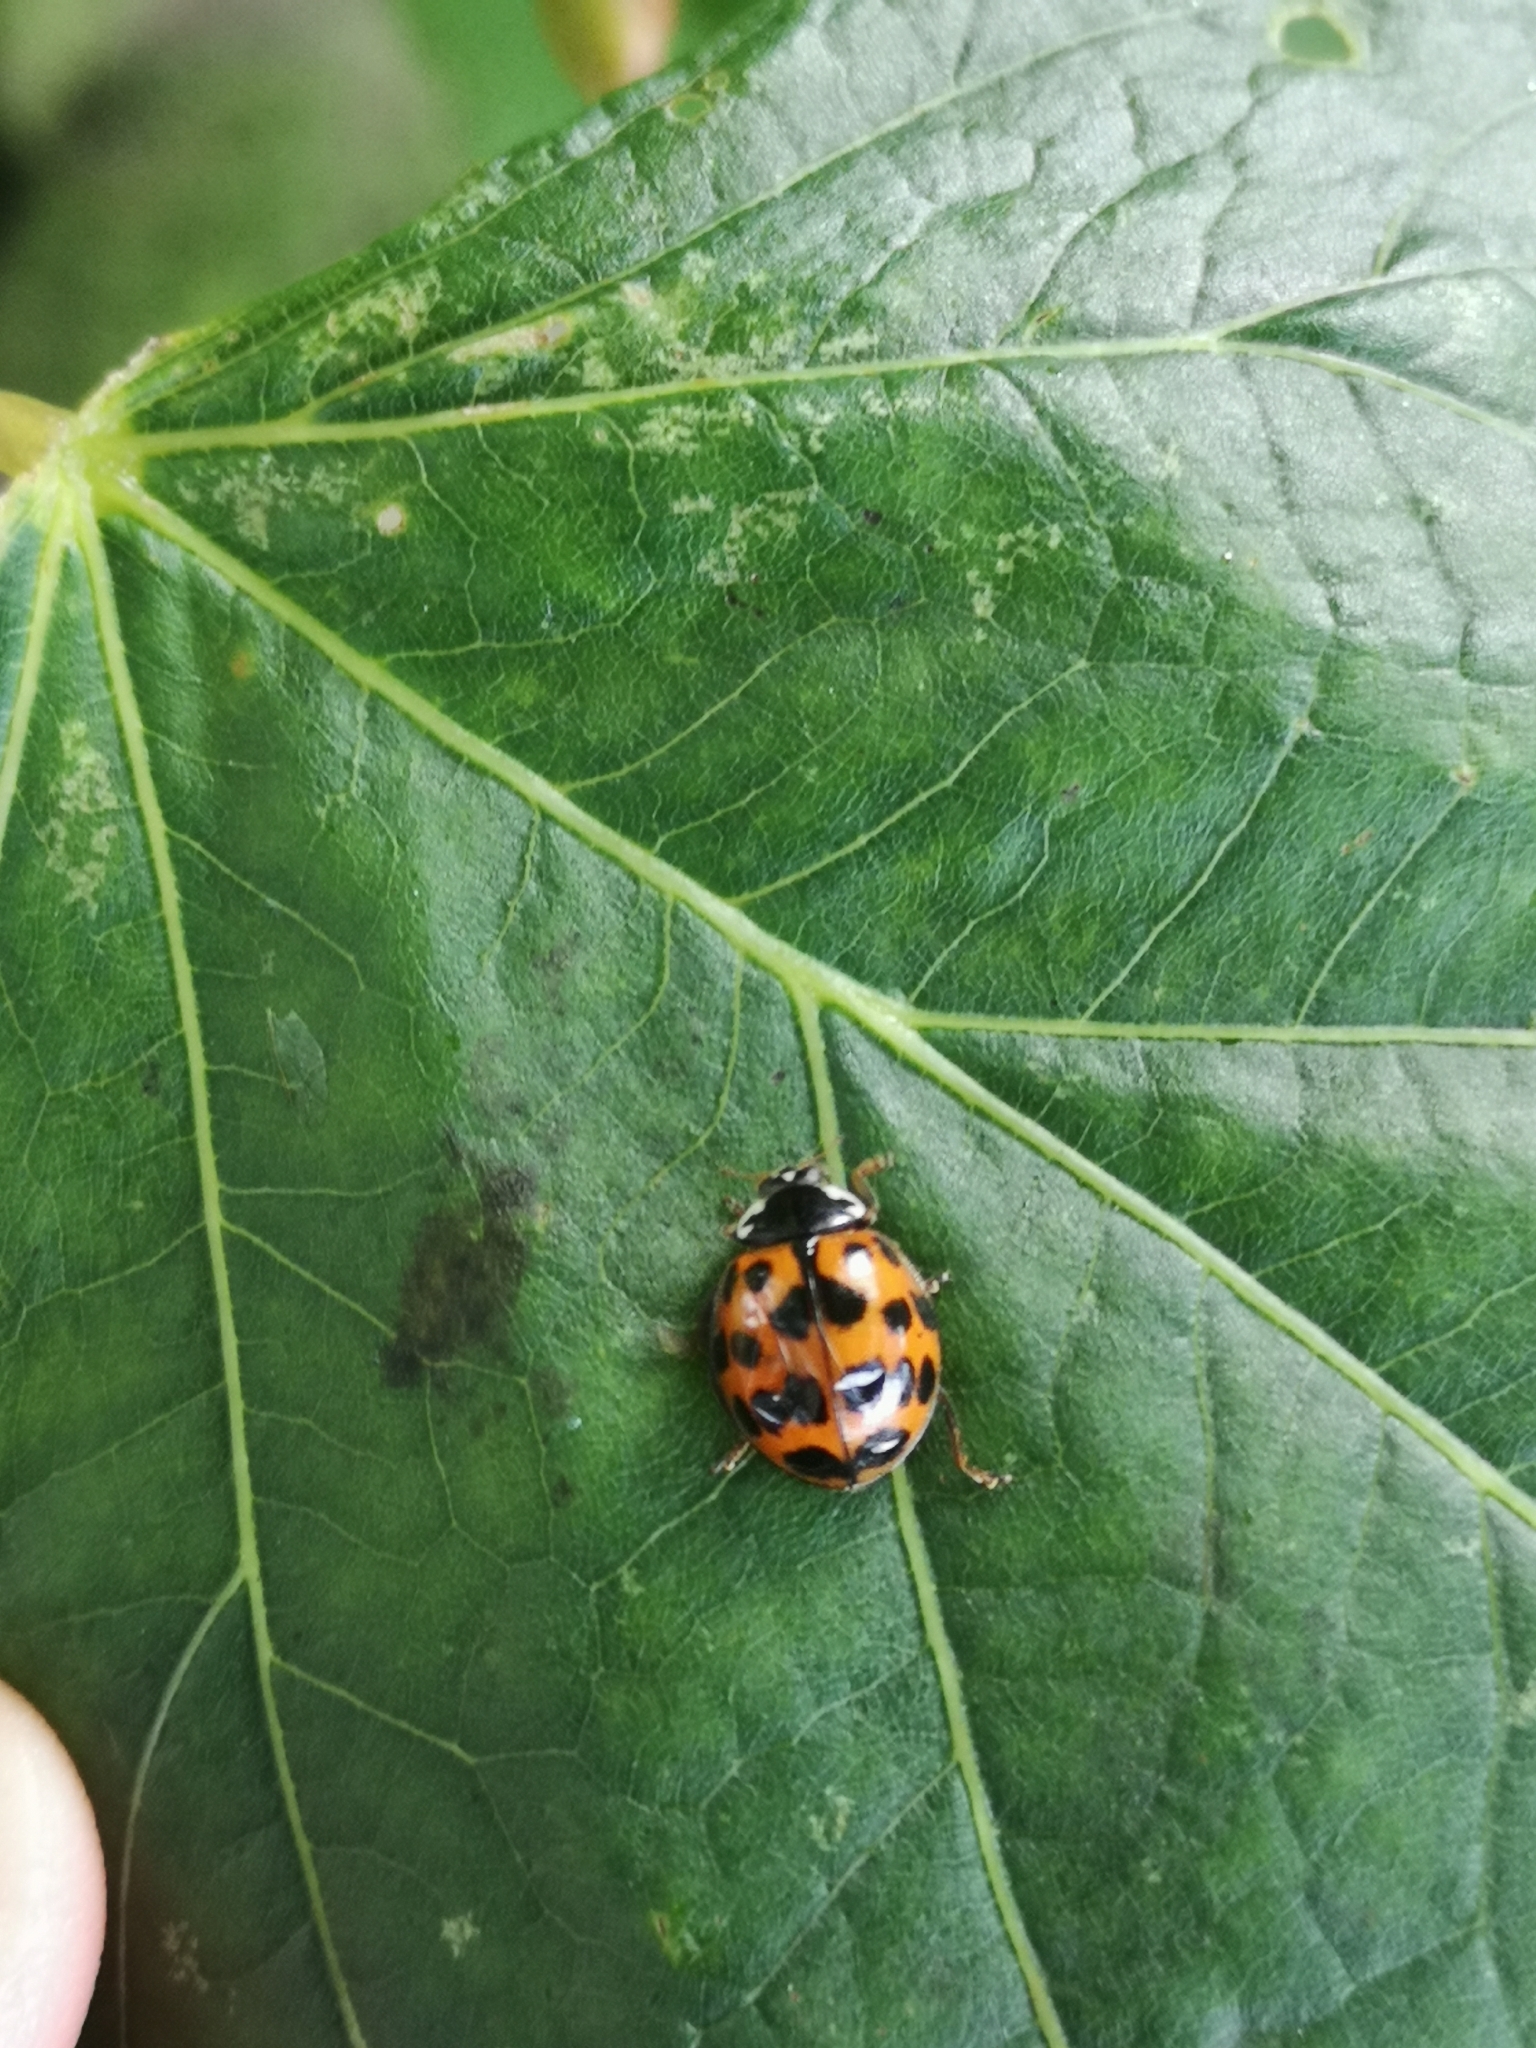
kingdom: Animalia
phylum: Arthropoda
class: Insecta
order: Coleoptera
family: Coccinellidae
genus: Harmonia
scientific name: Harmonia axyridis
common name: Harlequin ladybird
